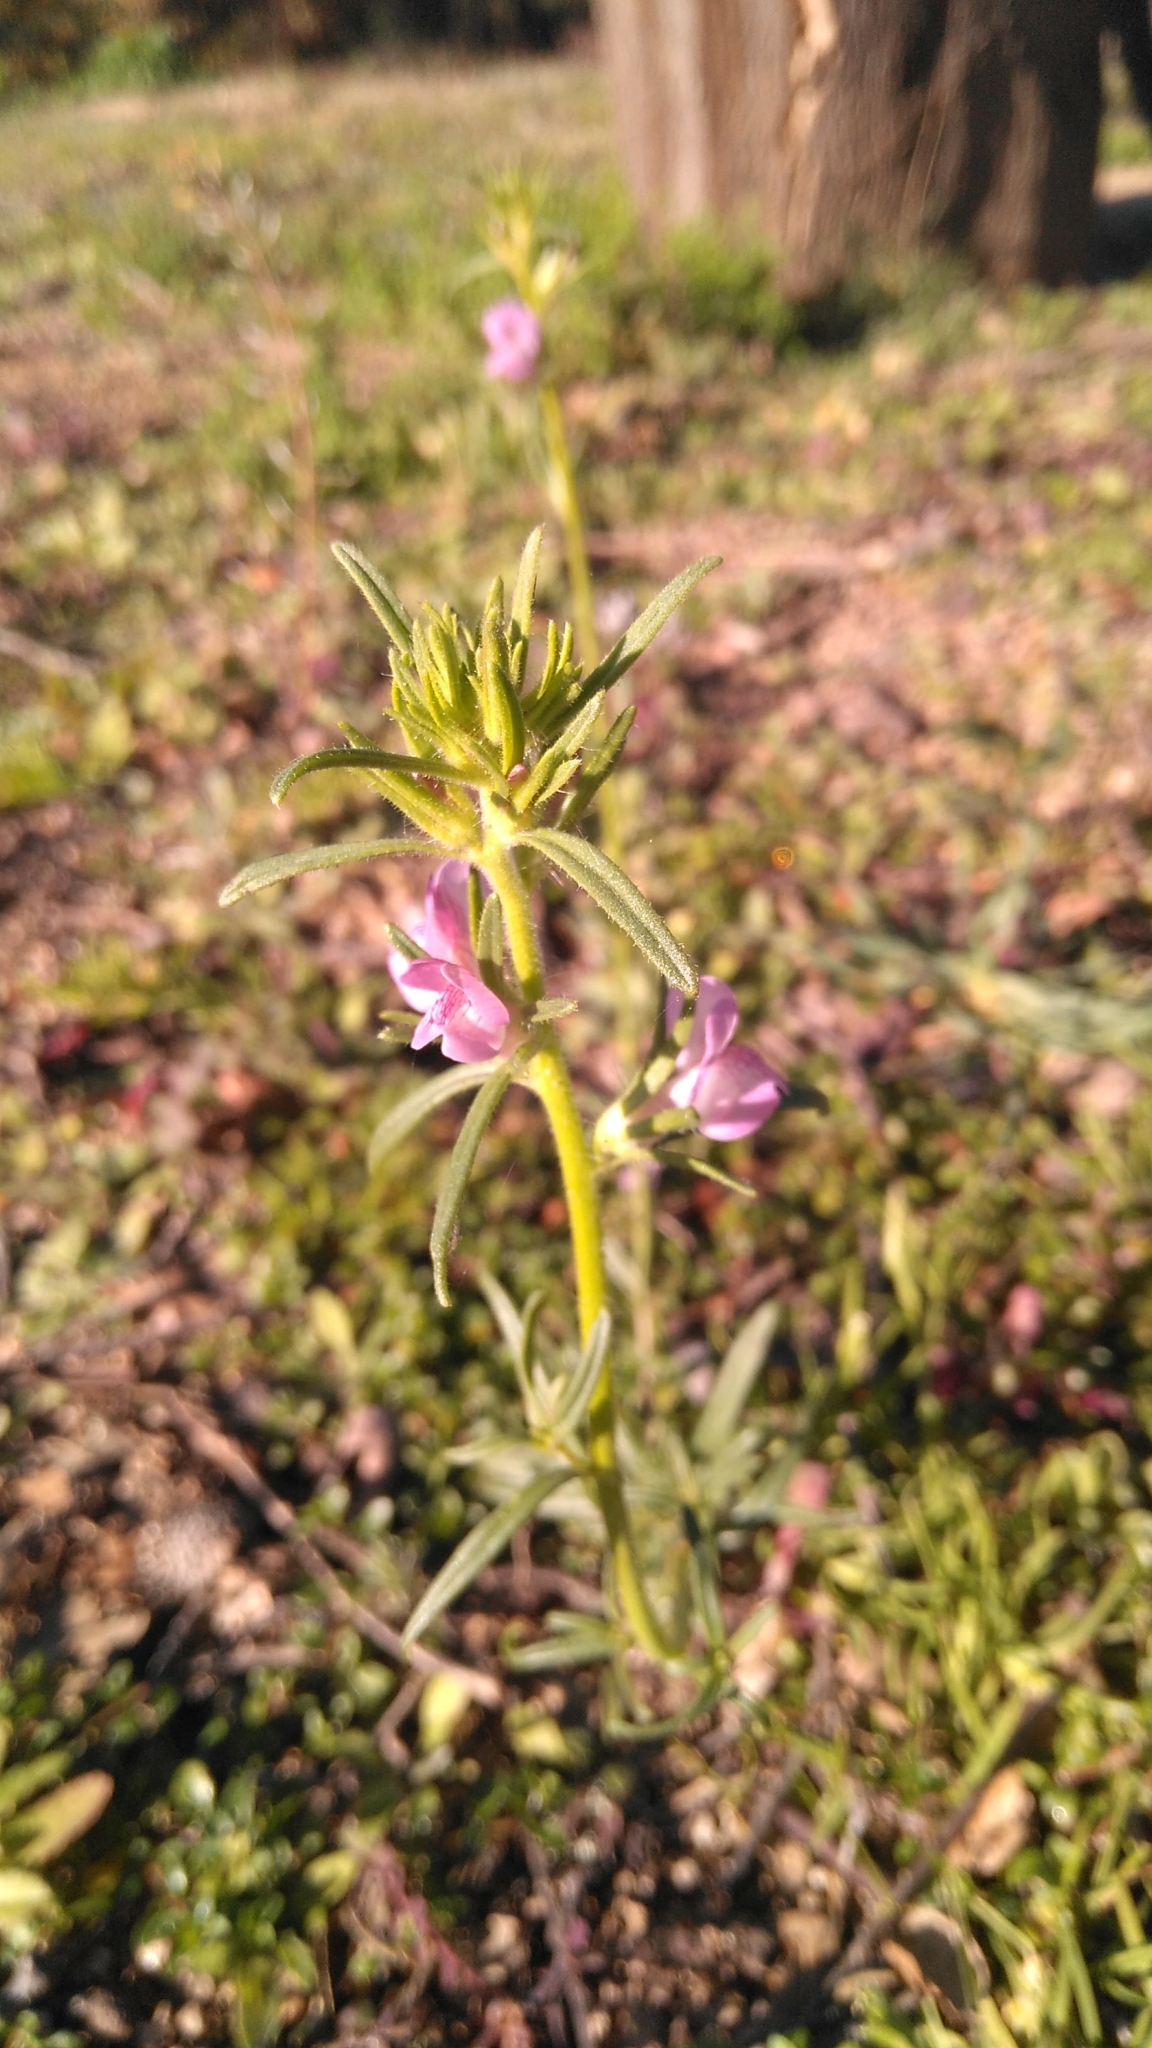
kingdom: Plantae
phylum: Tracheophyta
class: Magnoliopsida
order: Lamiales
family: Plantaginaceae
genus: Misopates
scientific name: Misopates orontium
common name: Weasel's-snout
